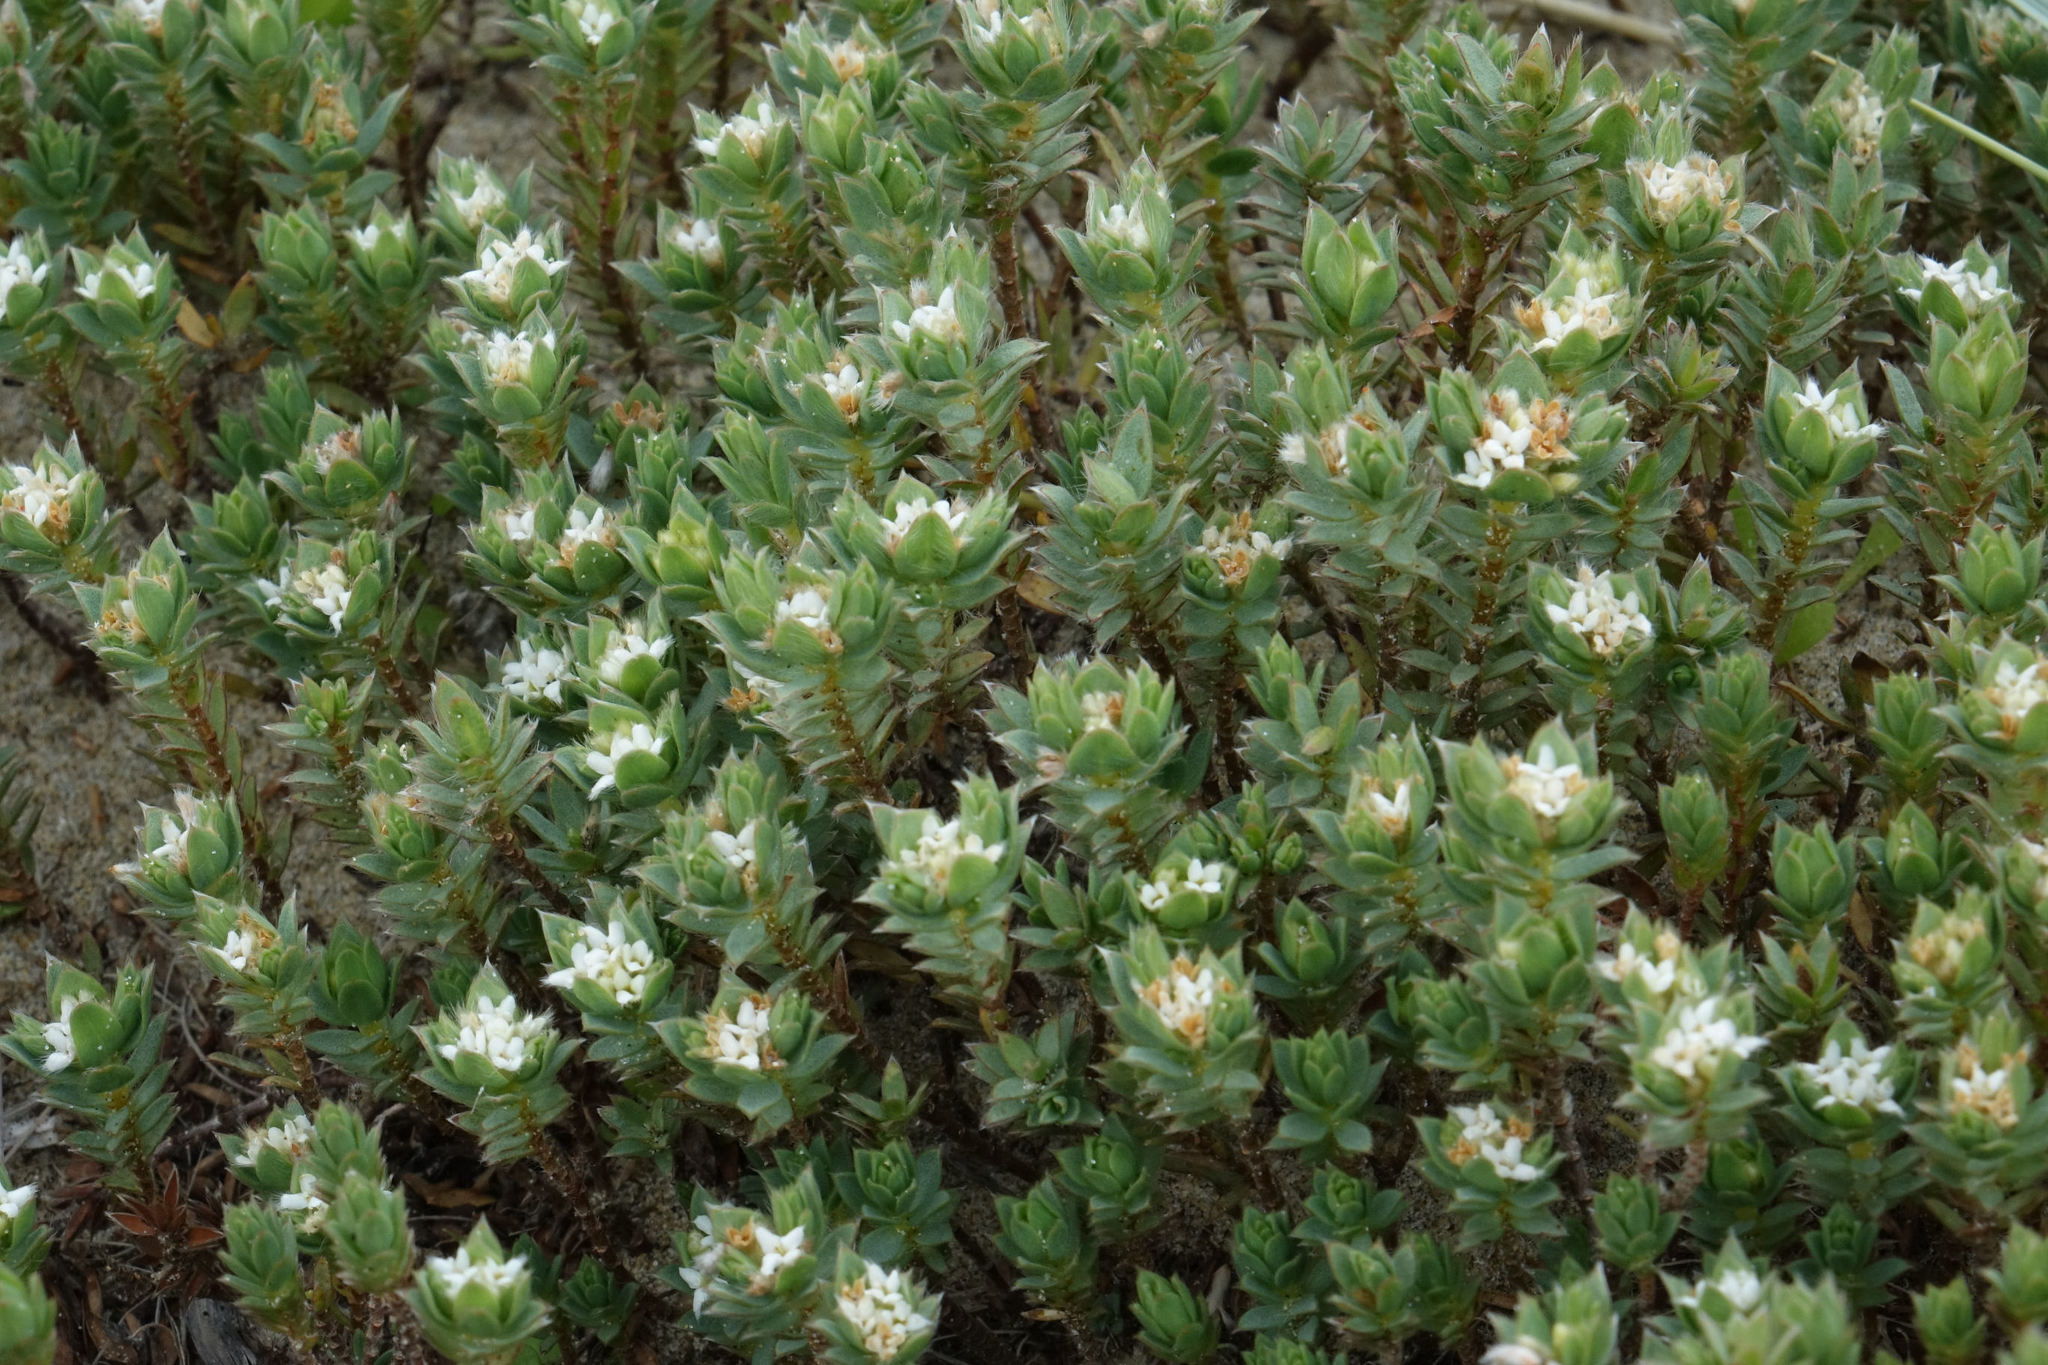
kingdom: Plantae
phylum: Tracheophyta
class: Magnoliopsida
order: Malvales
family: Thymelaeaceae
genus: Pimelea
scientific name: Pimelea lyallii
